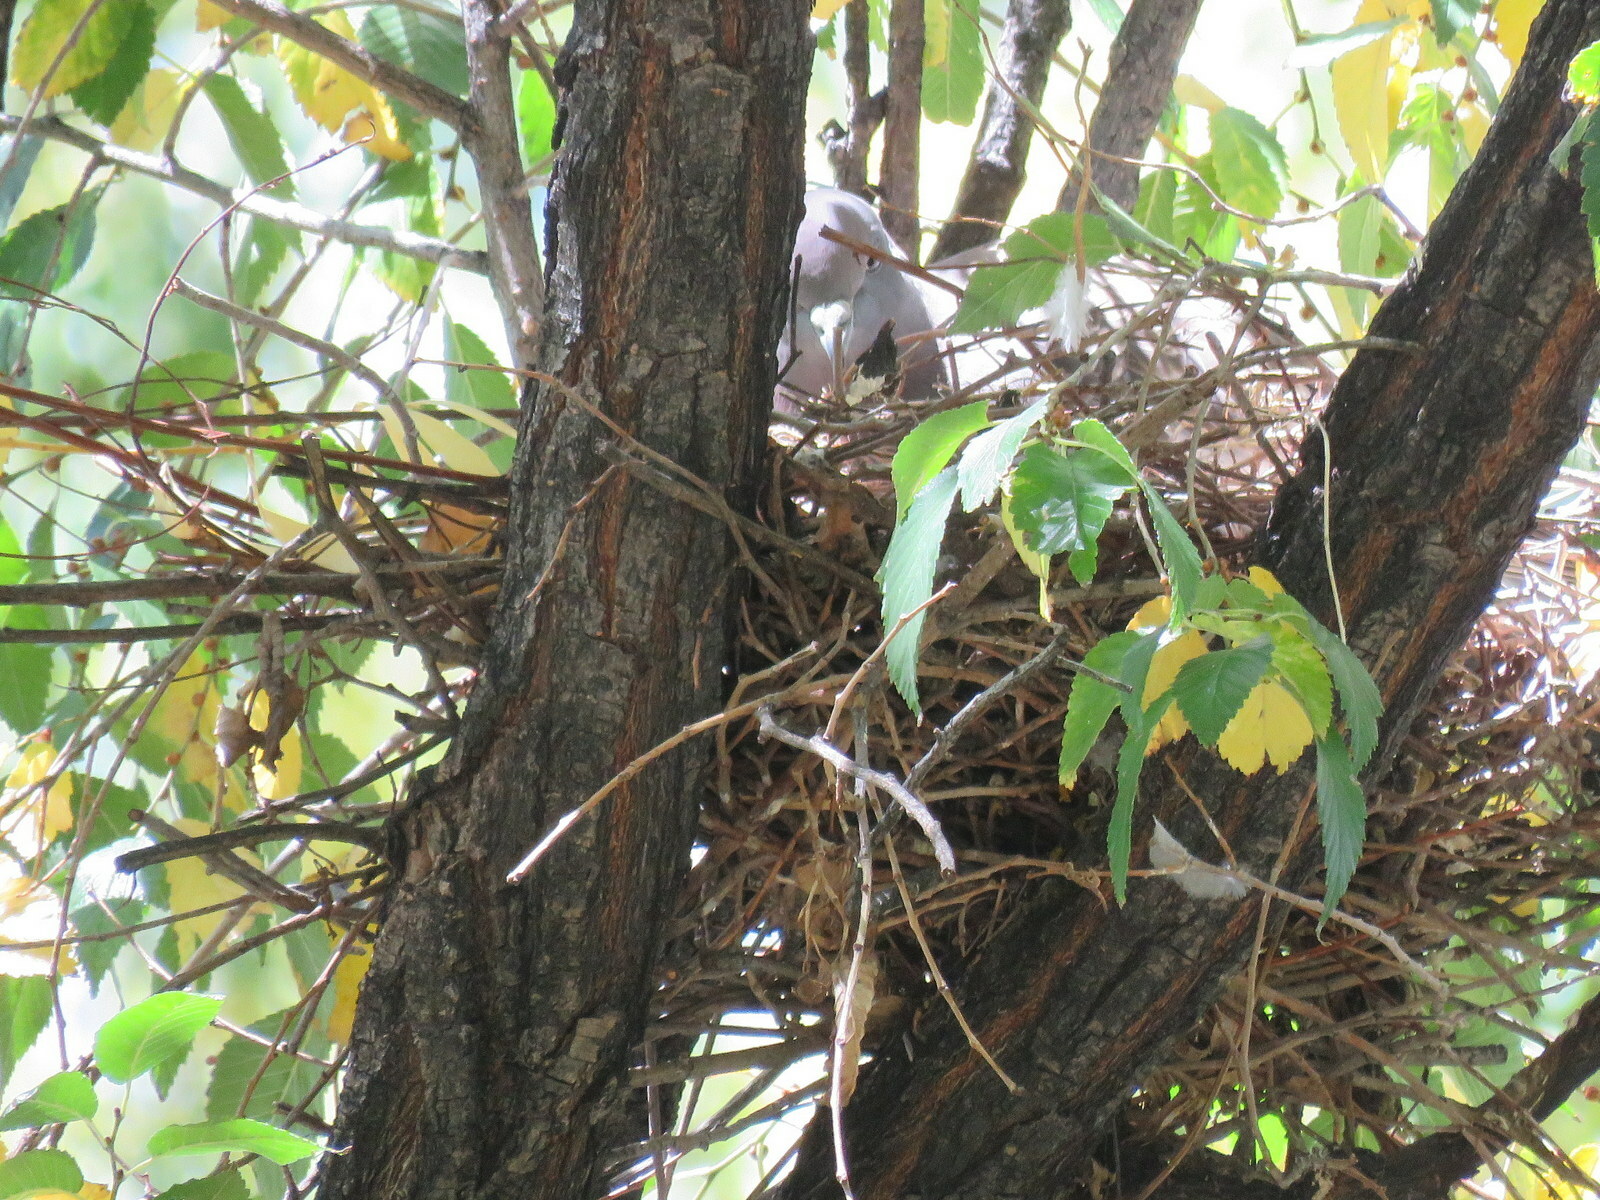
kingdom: Animalia
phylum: Chordata
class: Aves
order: Columbiformes
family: Columbidae
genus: Patagioenas
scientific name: Patagioenas maculosa
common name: Spot-winged pigeon
